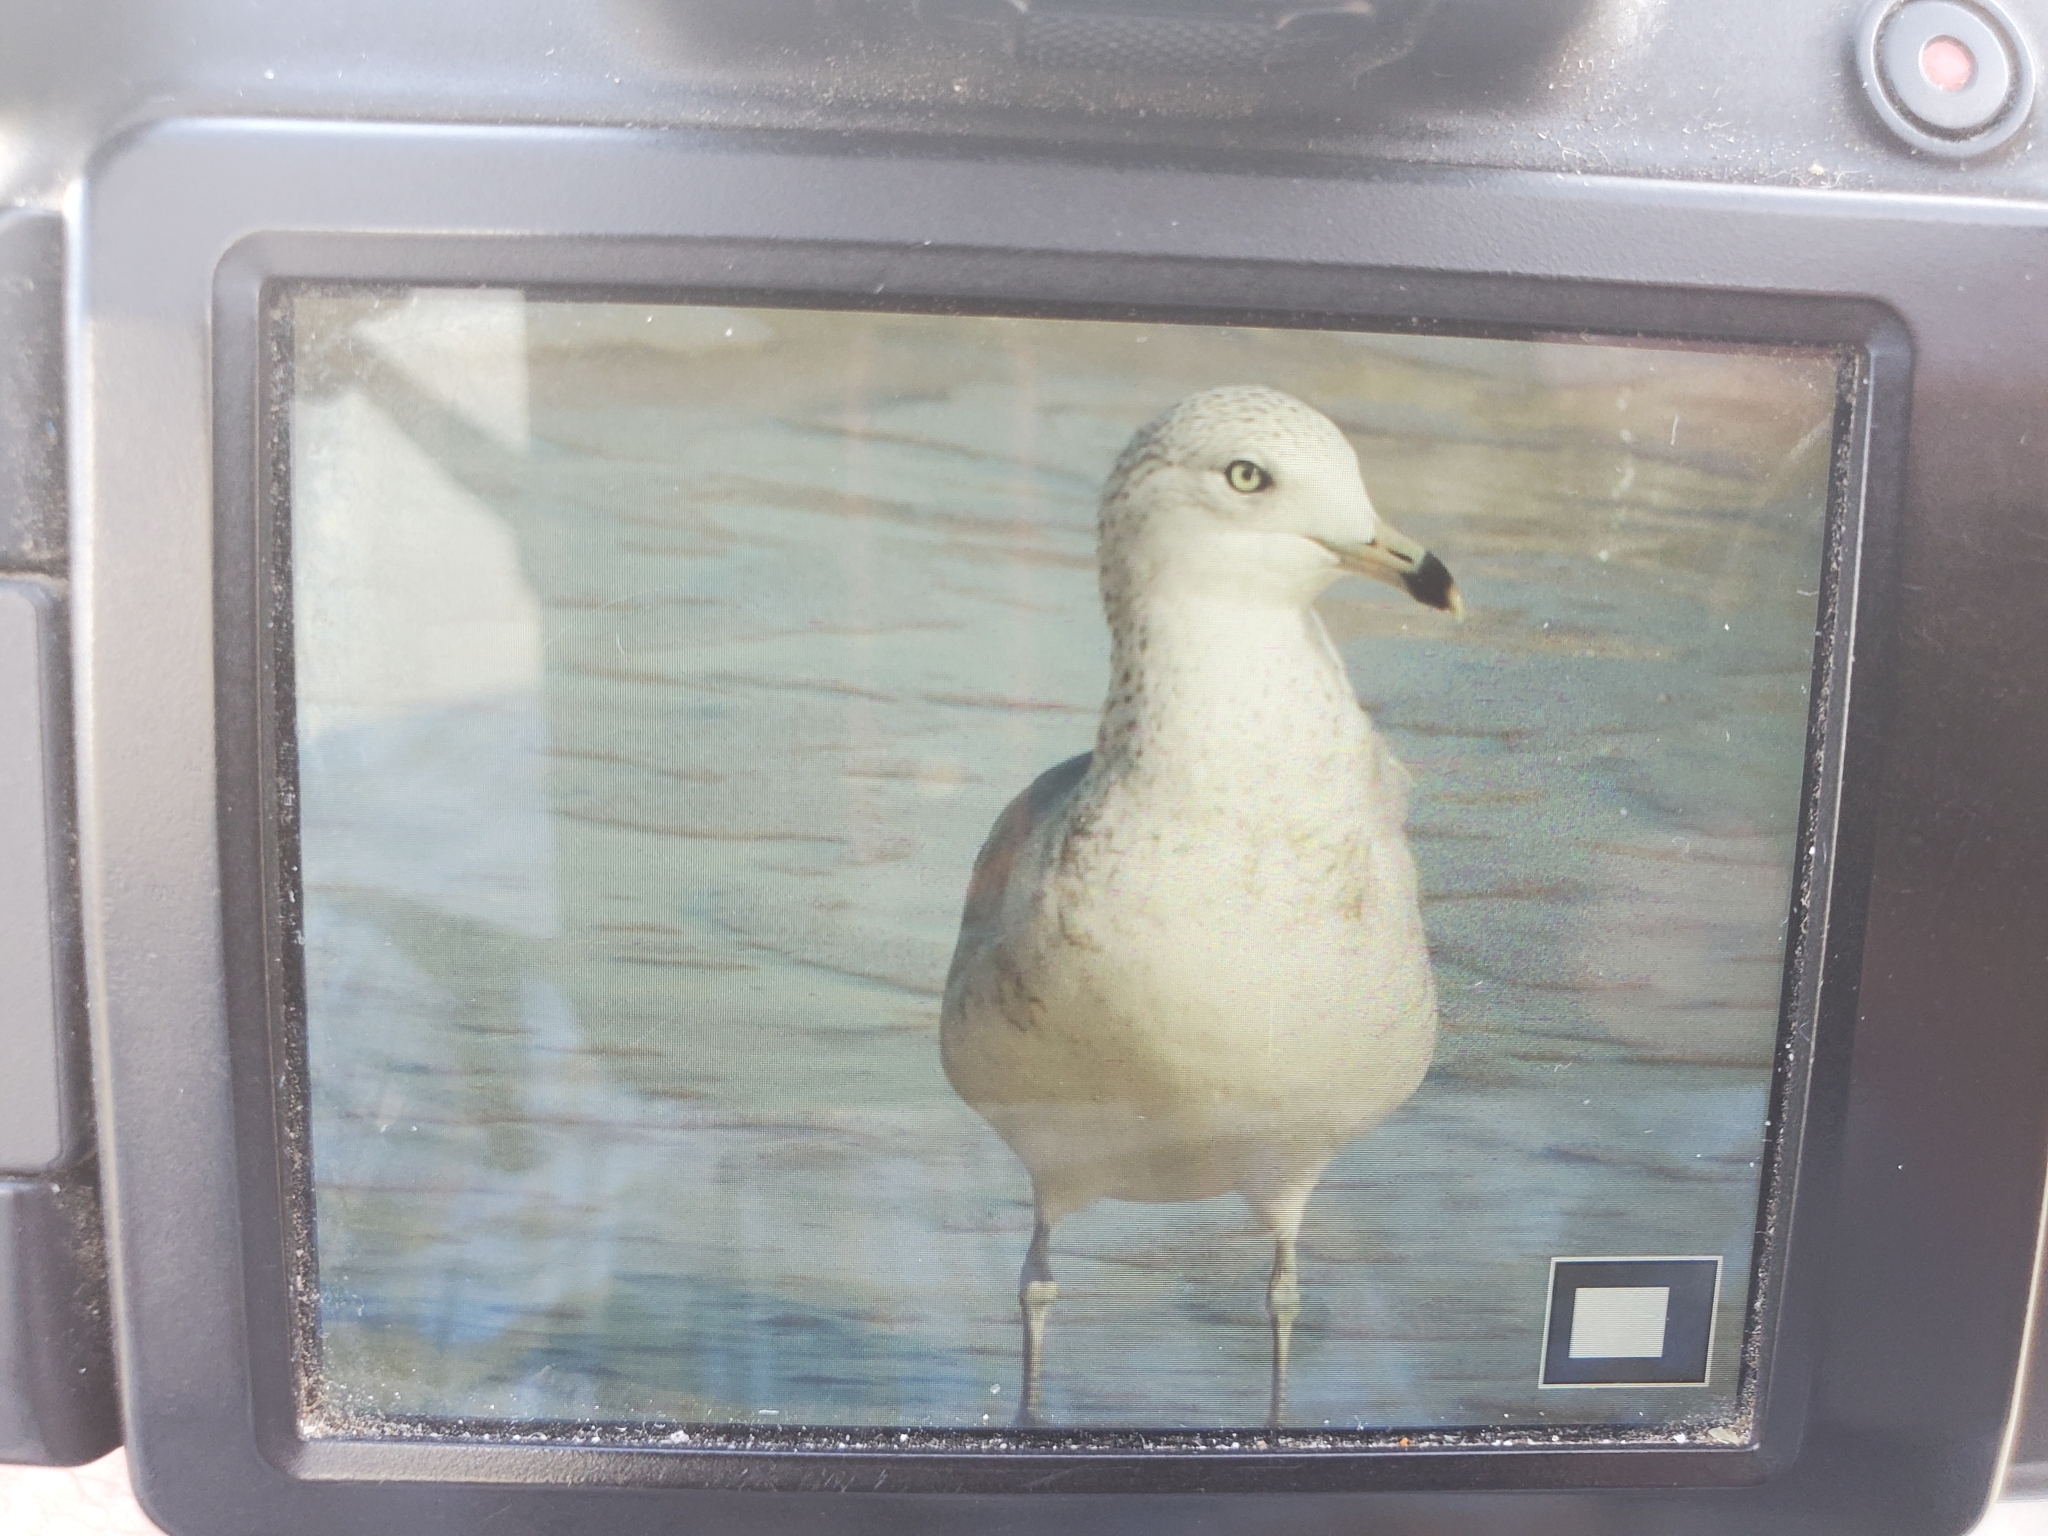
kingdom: Animalia
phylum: Chordata
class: Aves
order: Charadriiformes
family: Laridae
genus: Larus
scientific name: Larus delawarensis
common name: Ring-billed gull
